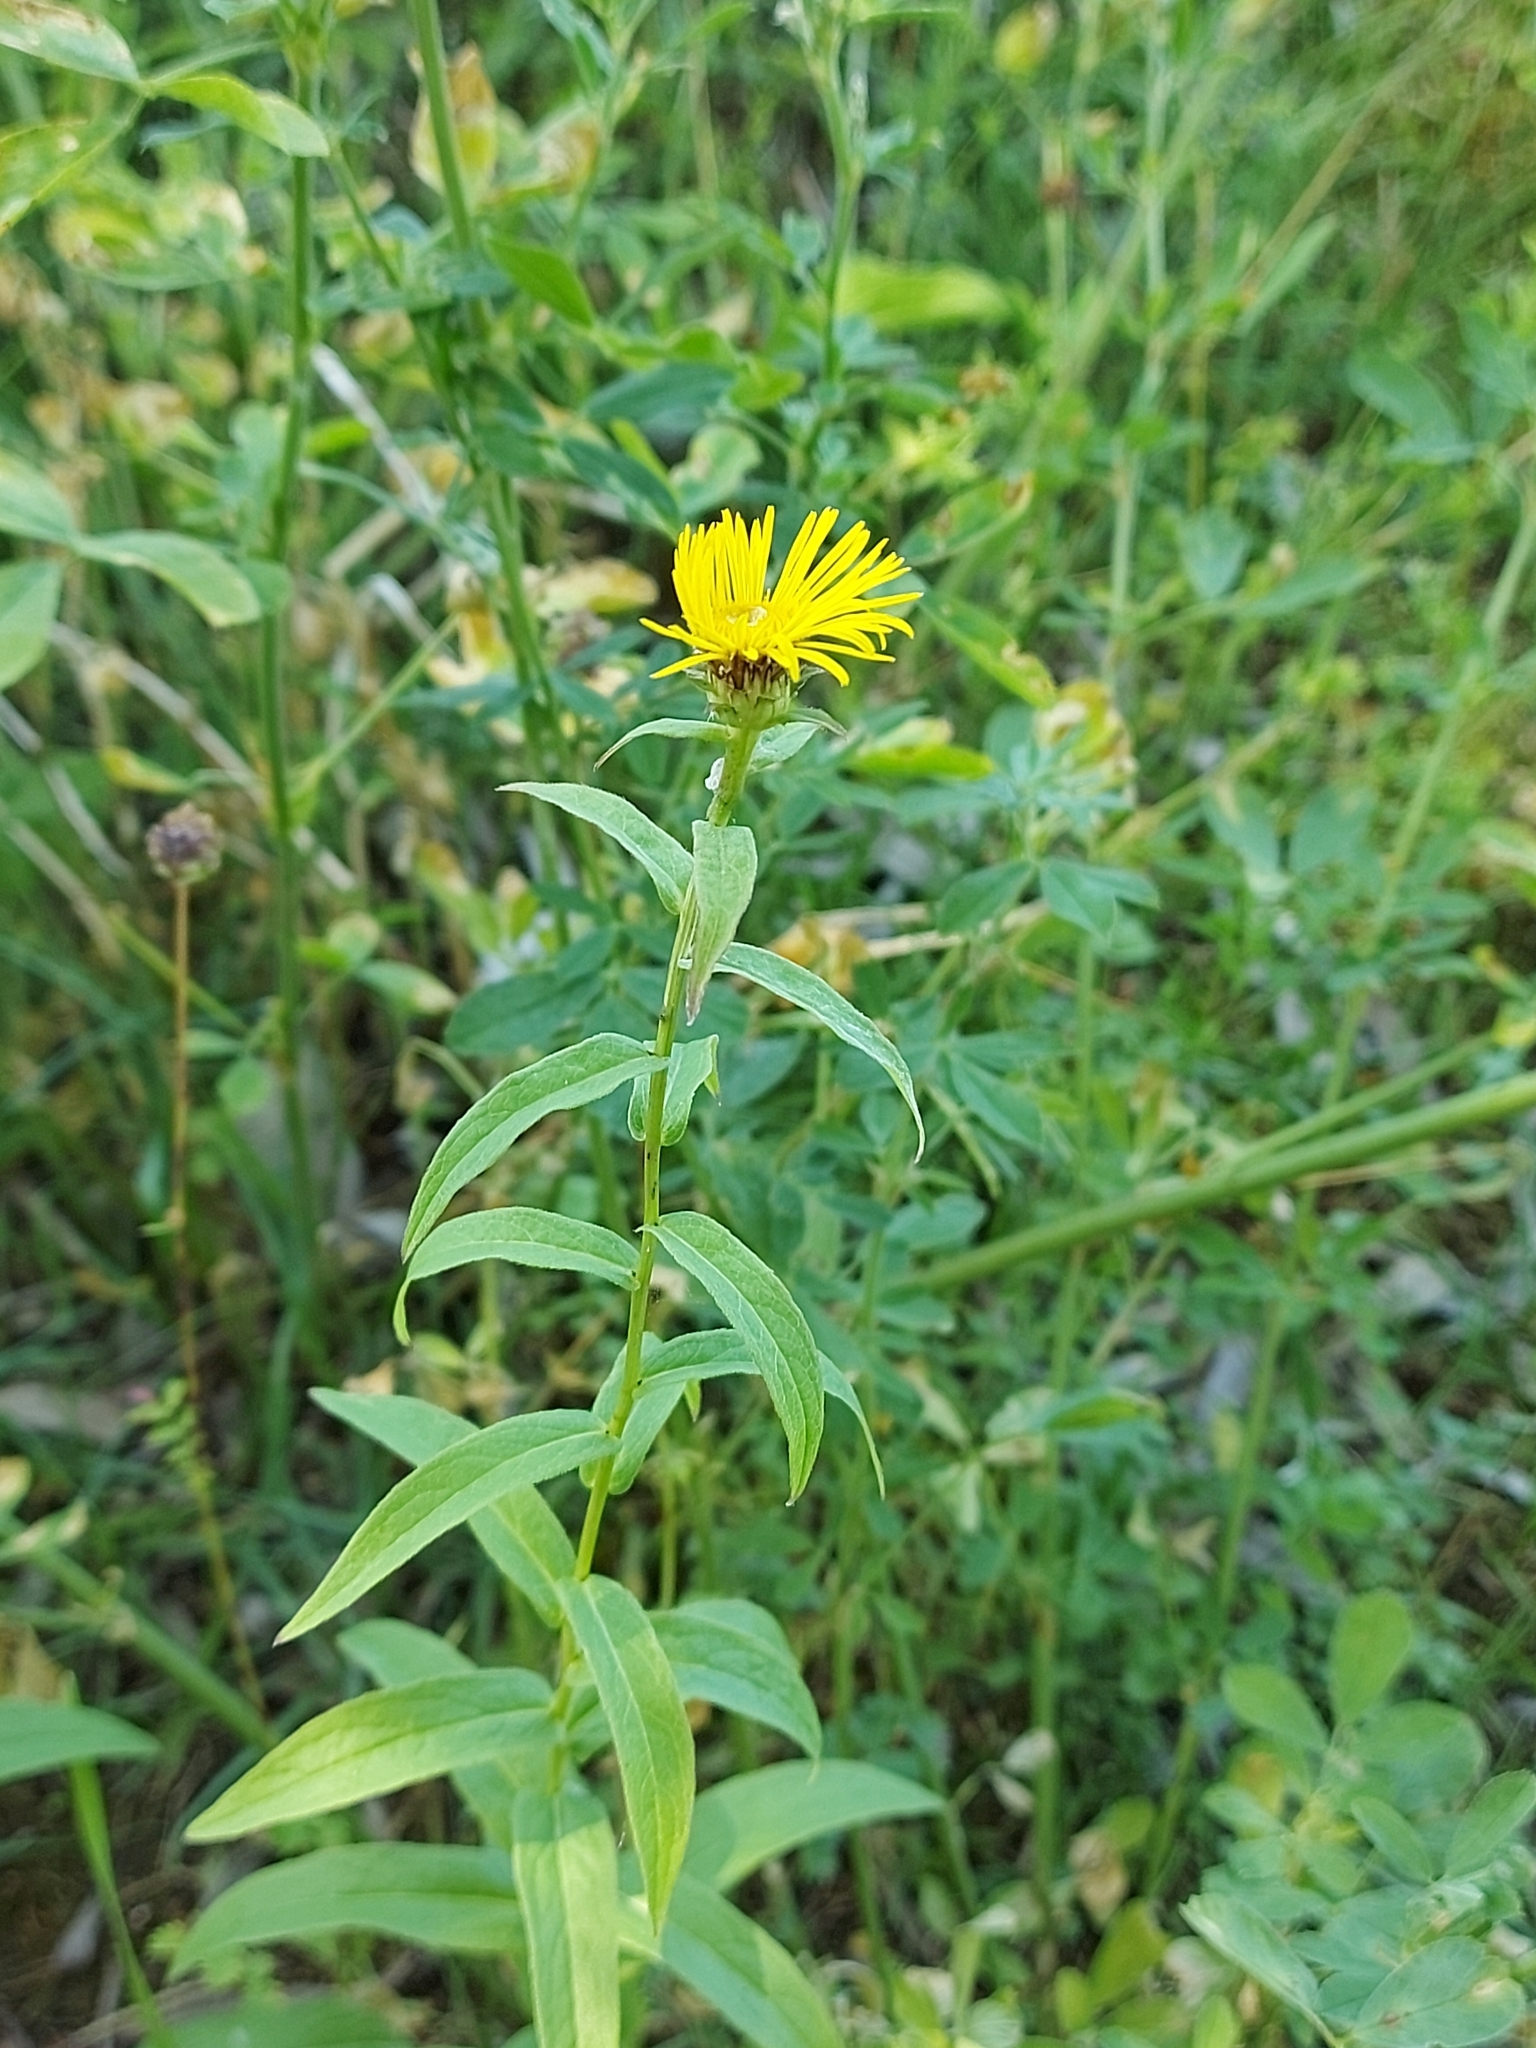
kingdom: Plantae
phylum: Tracheophyta
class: Magnoliopsida
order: Asterales
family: Asteraceae
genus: Pentanema
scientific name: Pentanema salicinum
